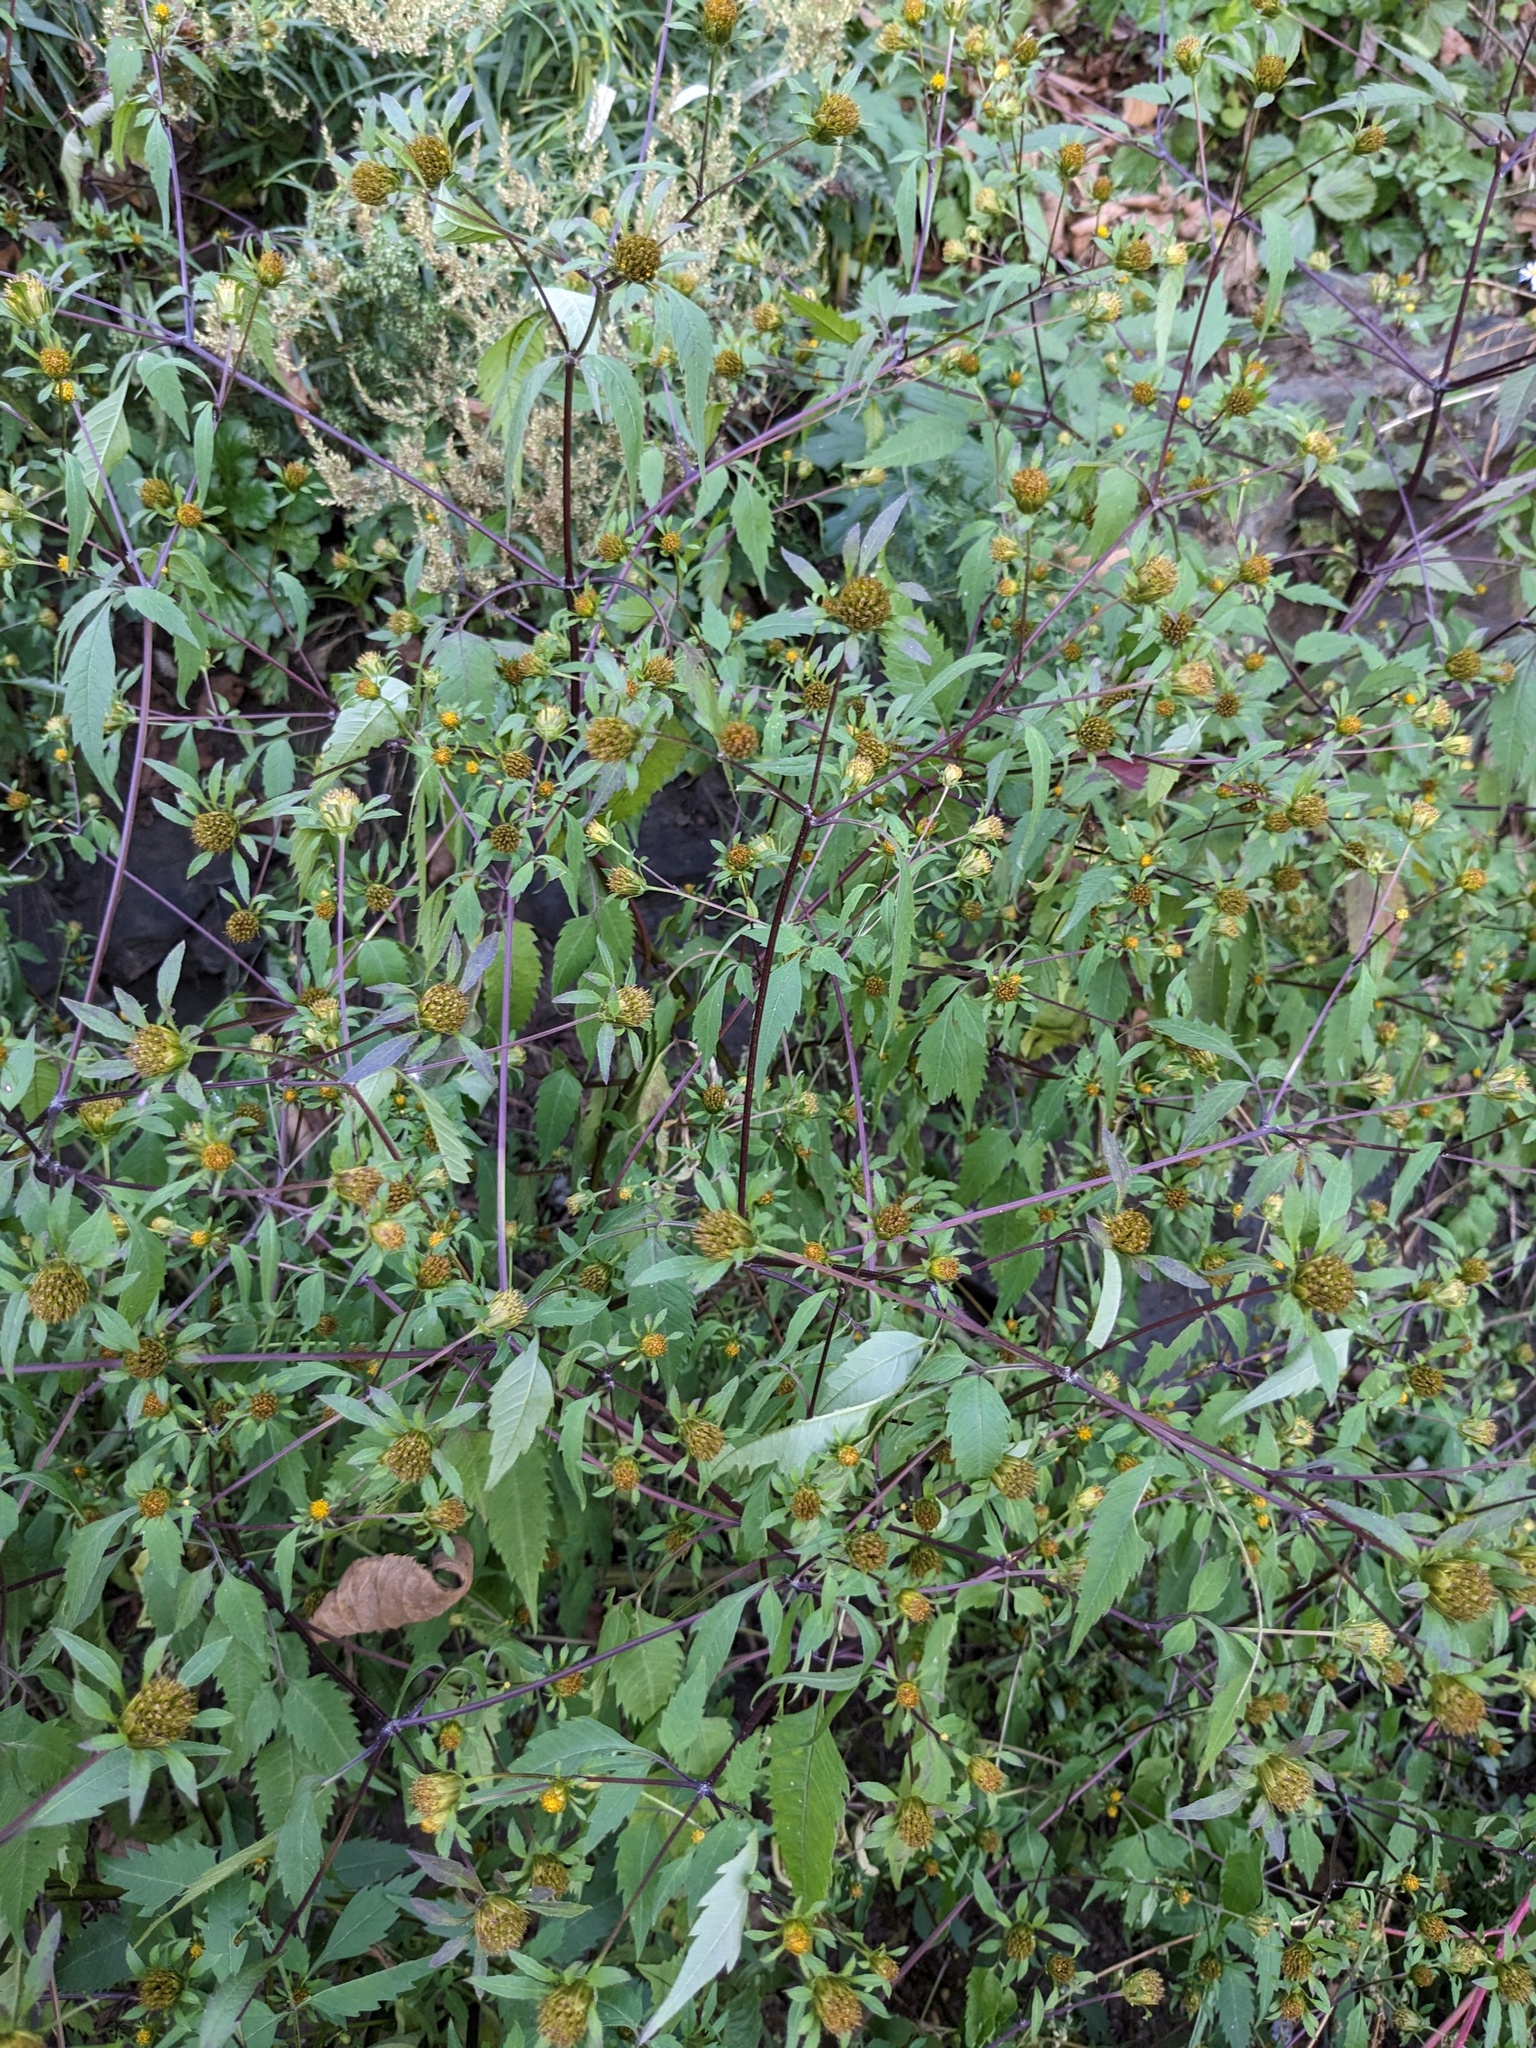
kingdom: Plantae
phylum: Tracheophyta
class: Magnoliopsida
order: Asterales
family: Asteraceae
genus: Bidens
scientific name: Bidens frondosa
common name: Beggarticks
